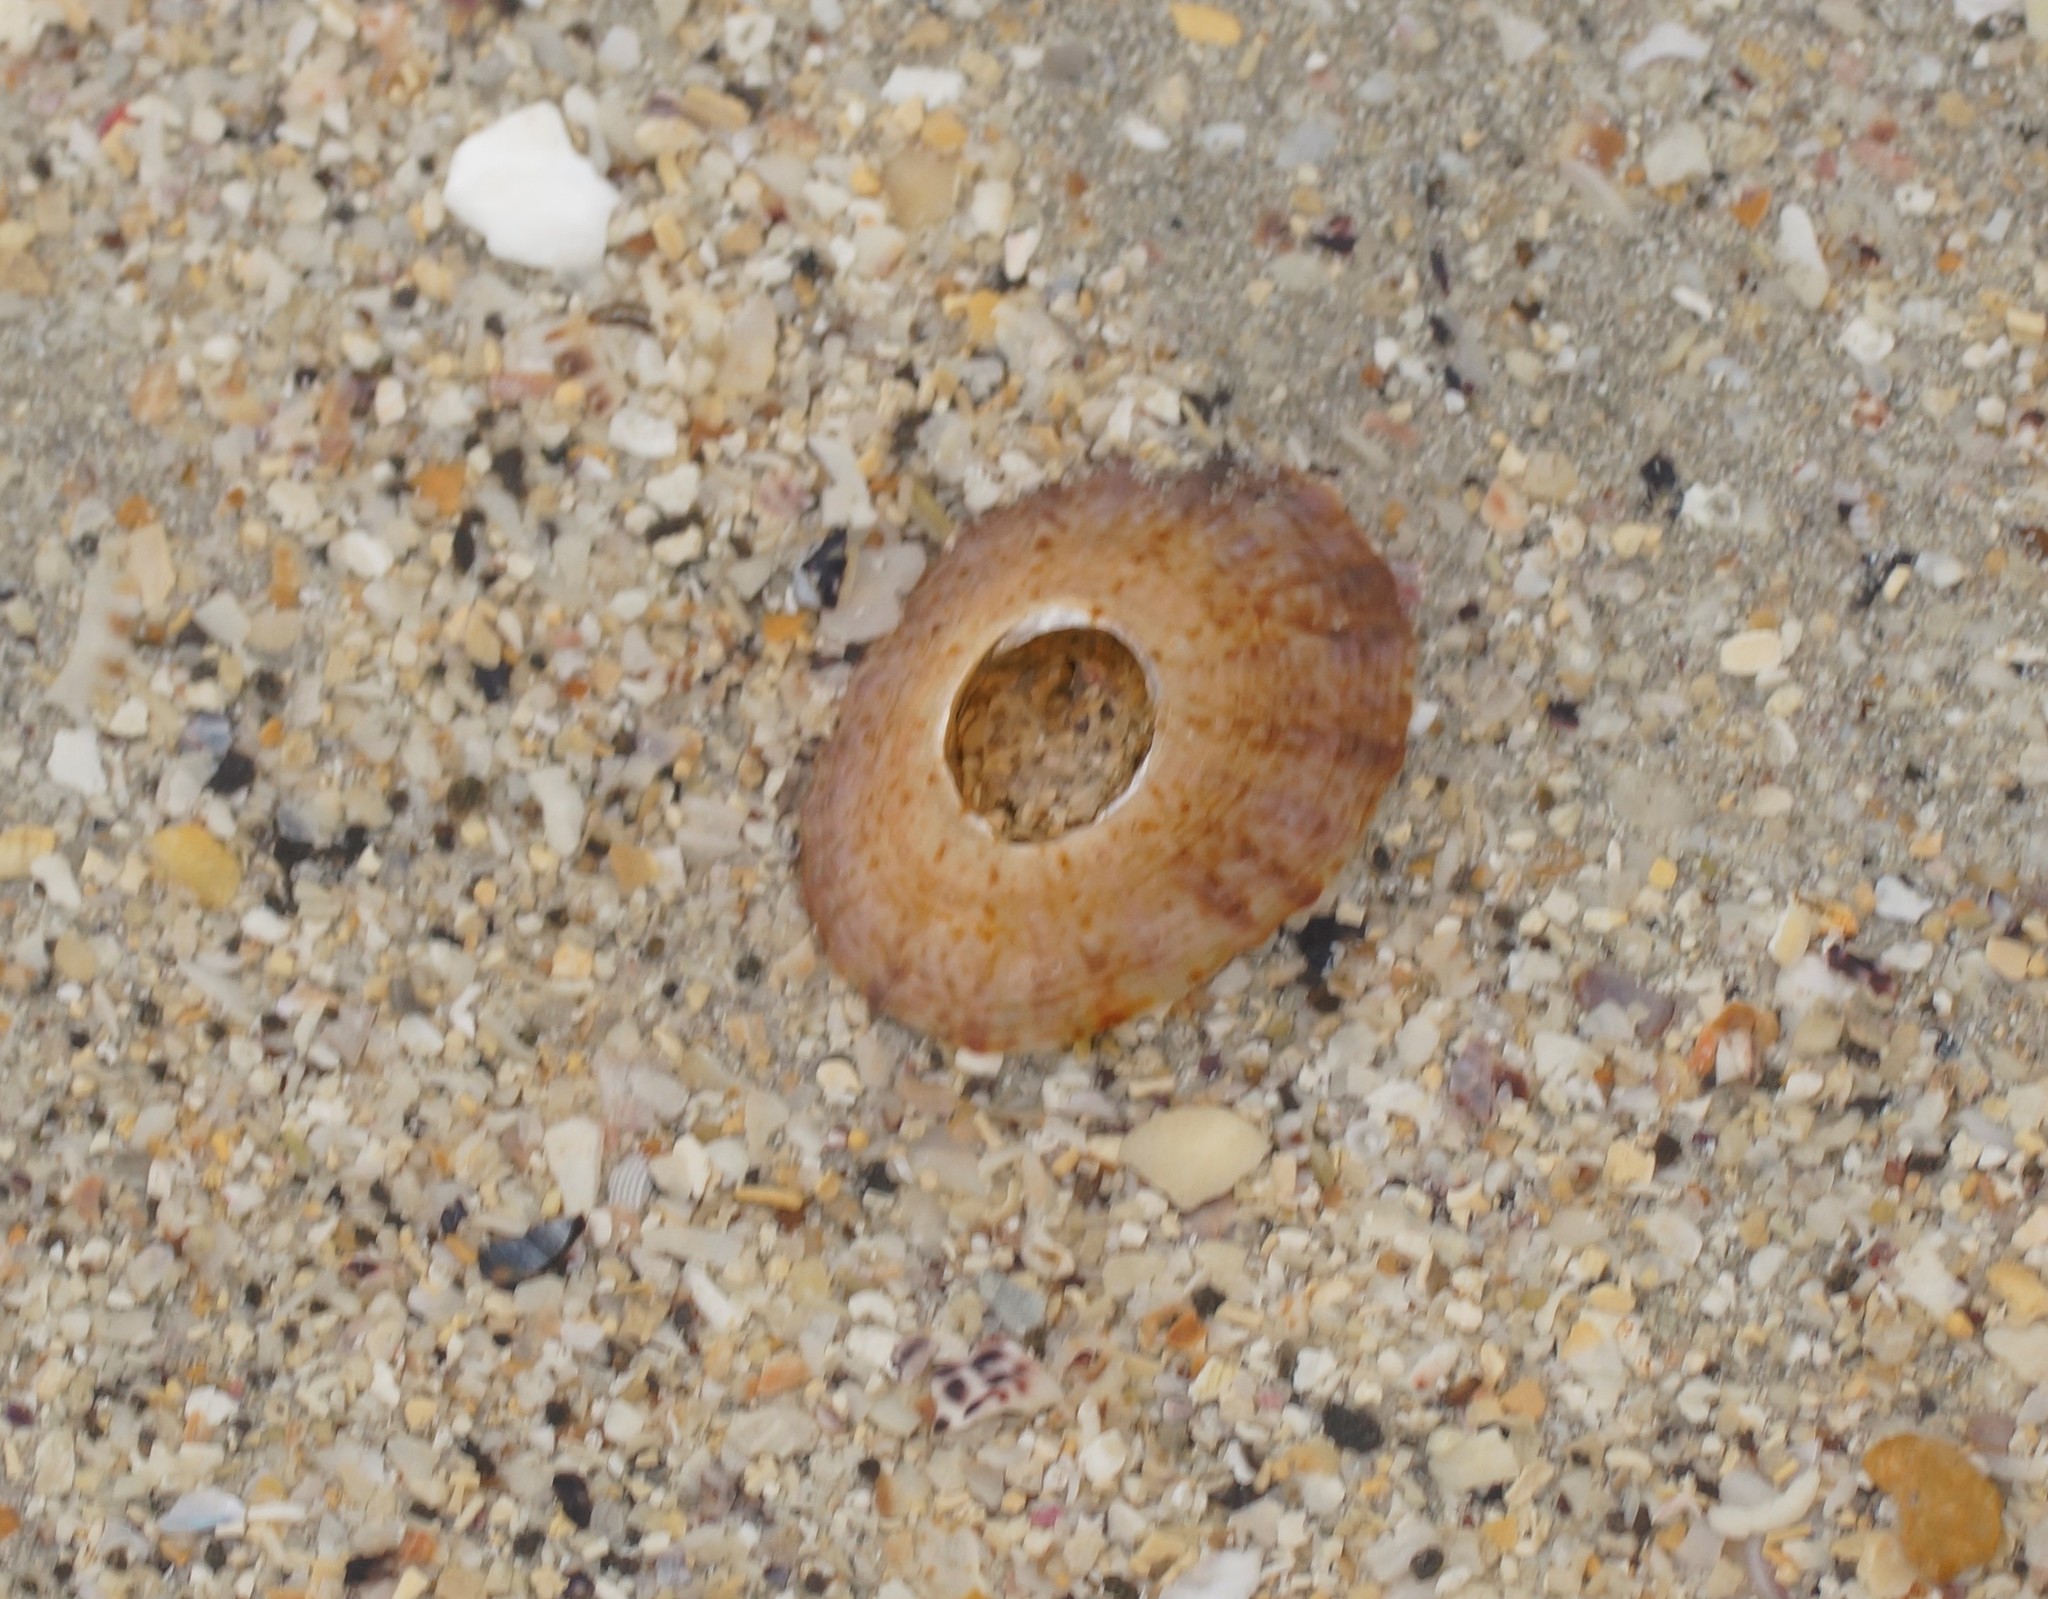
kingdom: Animalia
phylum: Mollusca
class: Gastropoda
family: Nacellidae
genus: Cellana
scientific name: Cellana tramoserica
